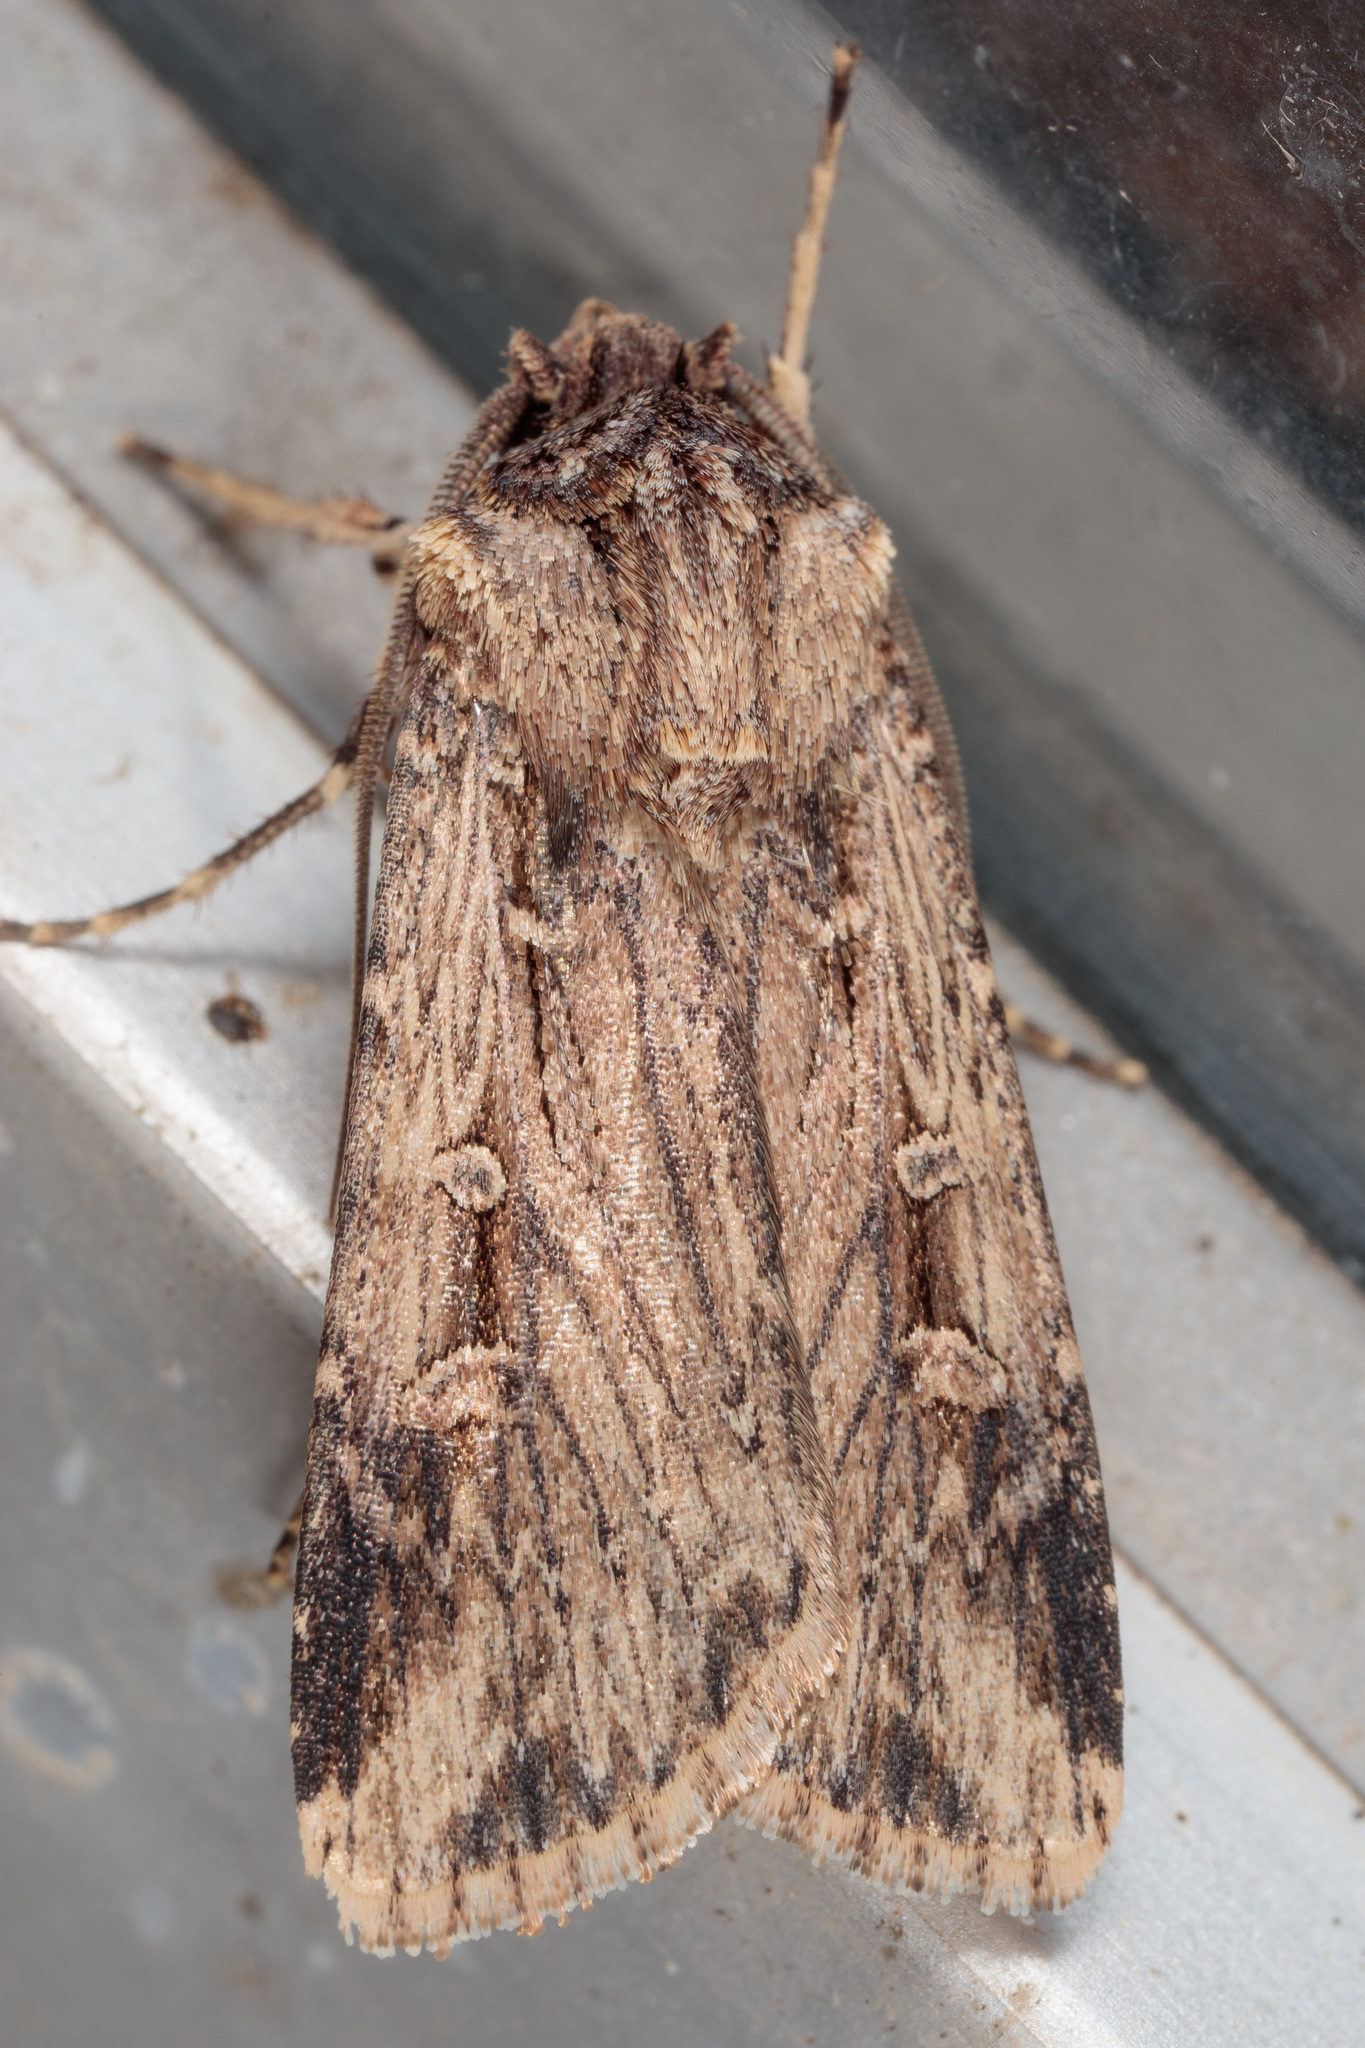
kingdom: Animalia
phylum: Arthropoda
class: Insecta
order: Lepidoptera
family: Noctuidae
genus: Feltia
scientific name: Feltia subterranea
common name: Granulate cutworm
